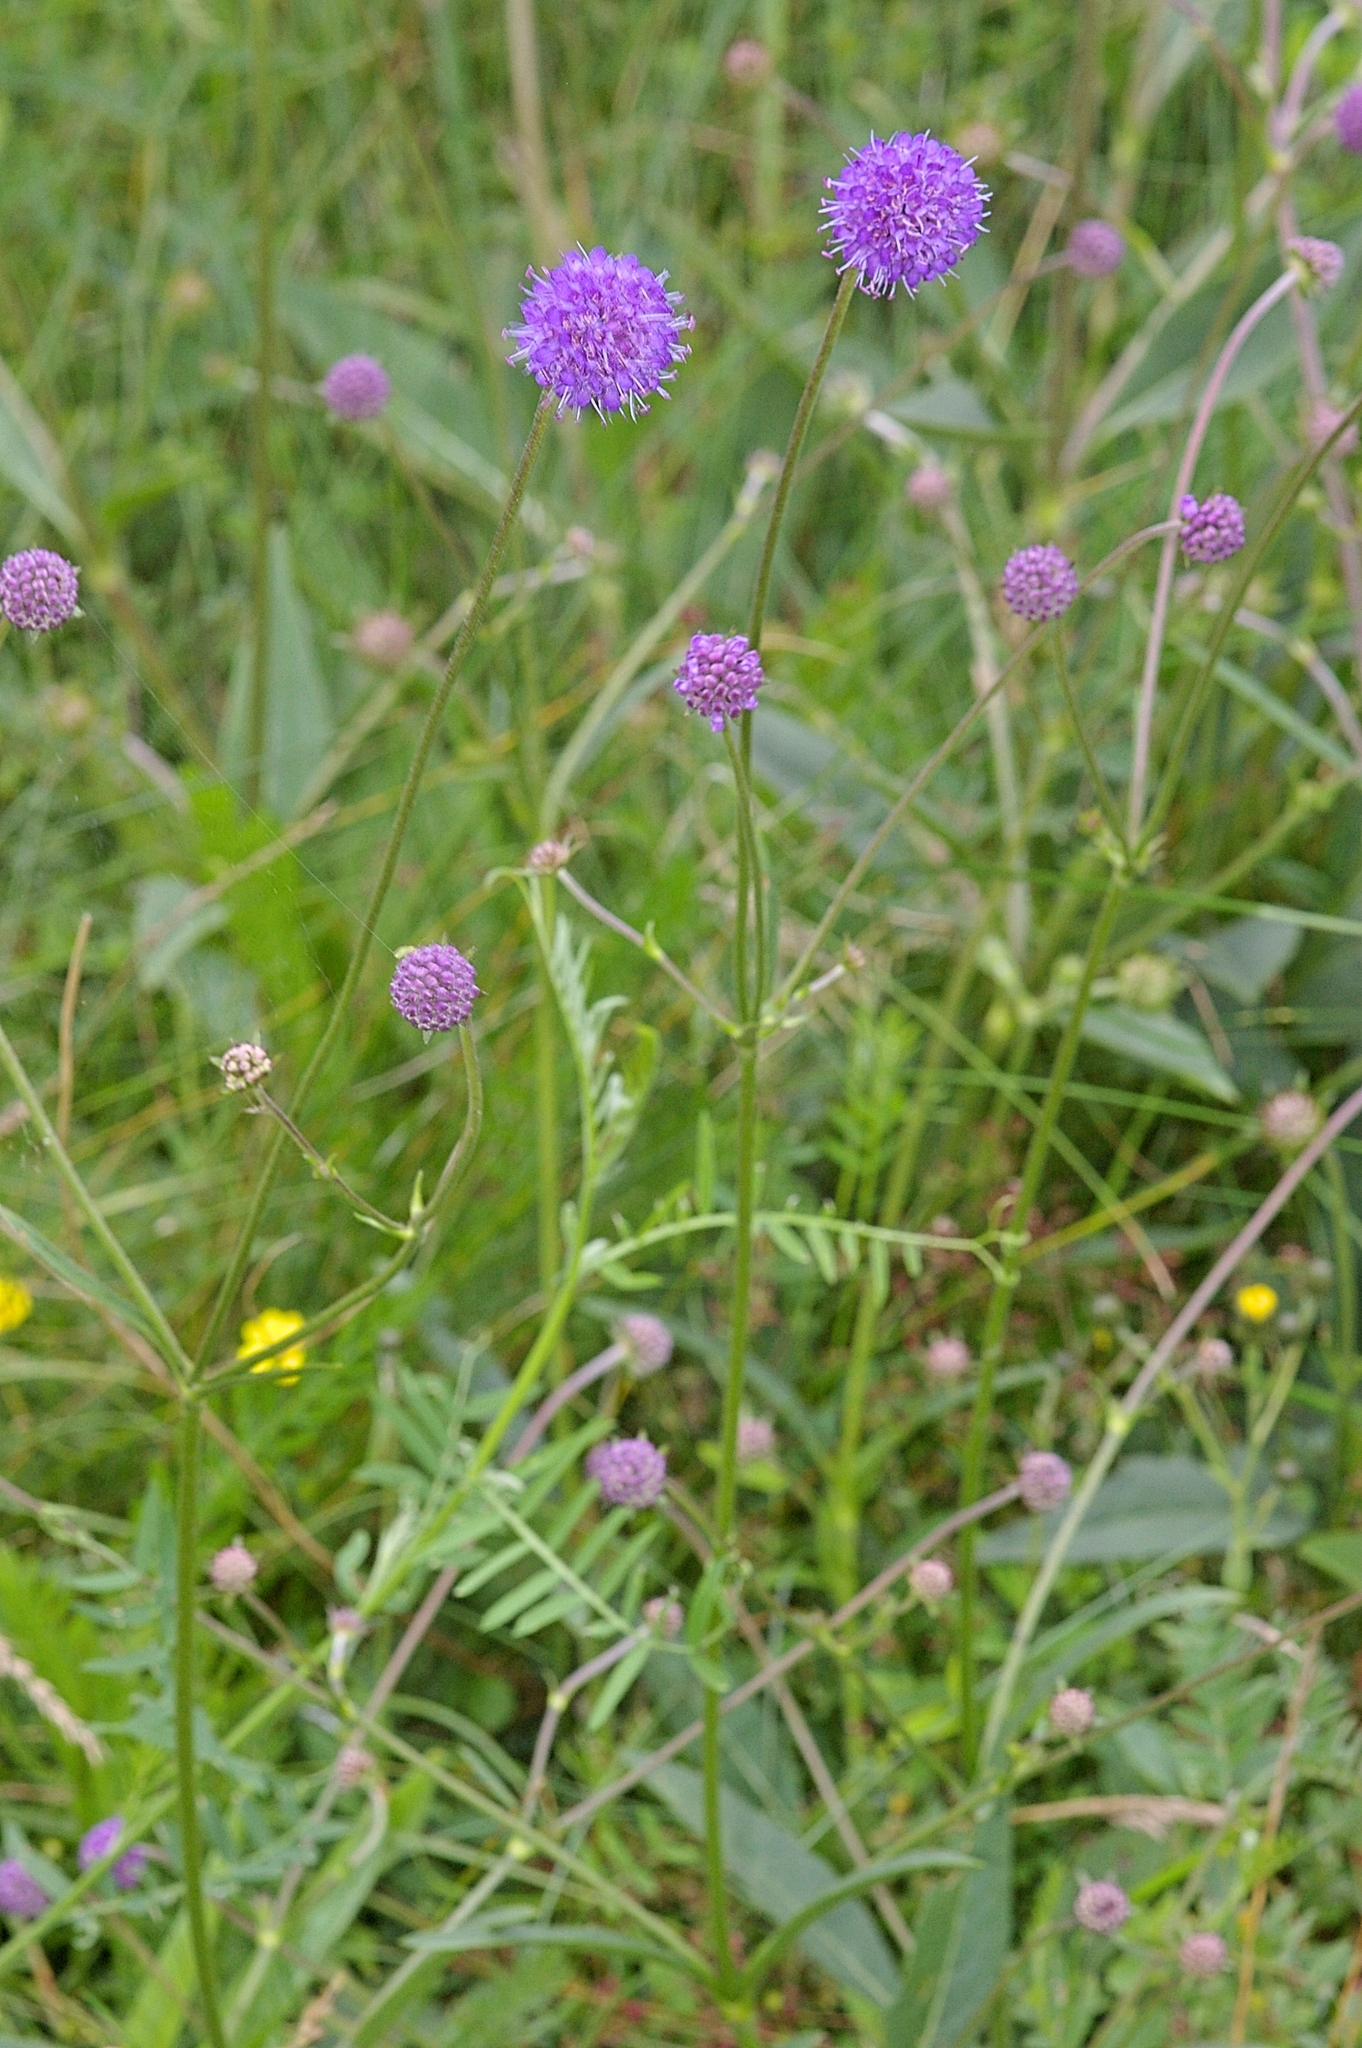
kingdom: Plantae
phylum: Tracheophyta
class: Magnoliopsida
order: Dipsacales
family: Caprifoliaceae
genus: Succisa
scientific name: Succisa pratensis
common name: Devil's-bit
